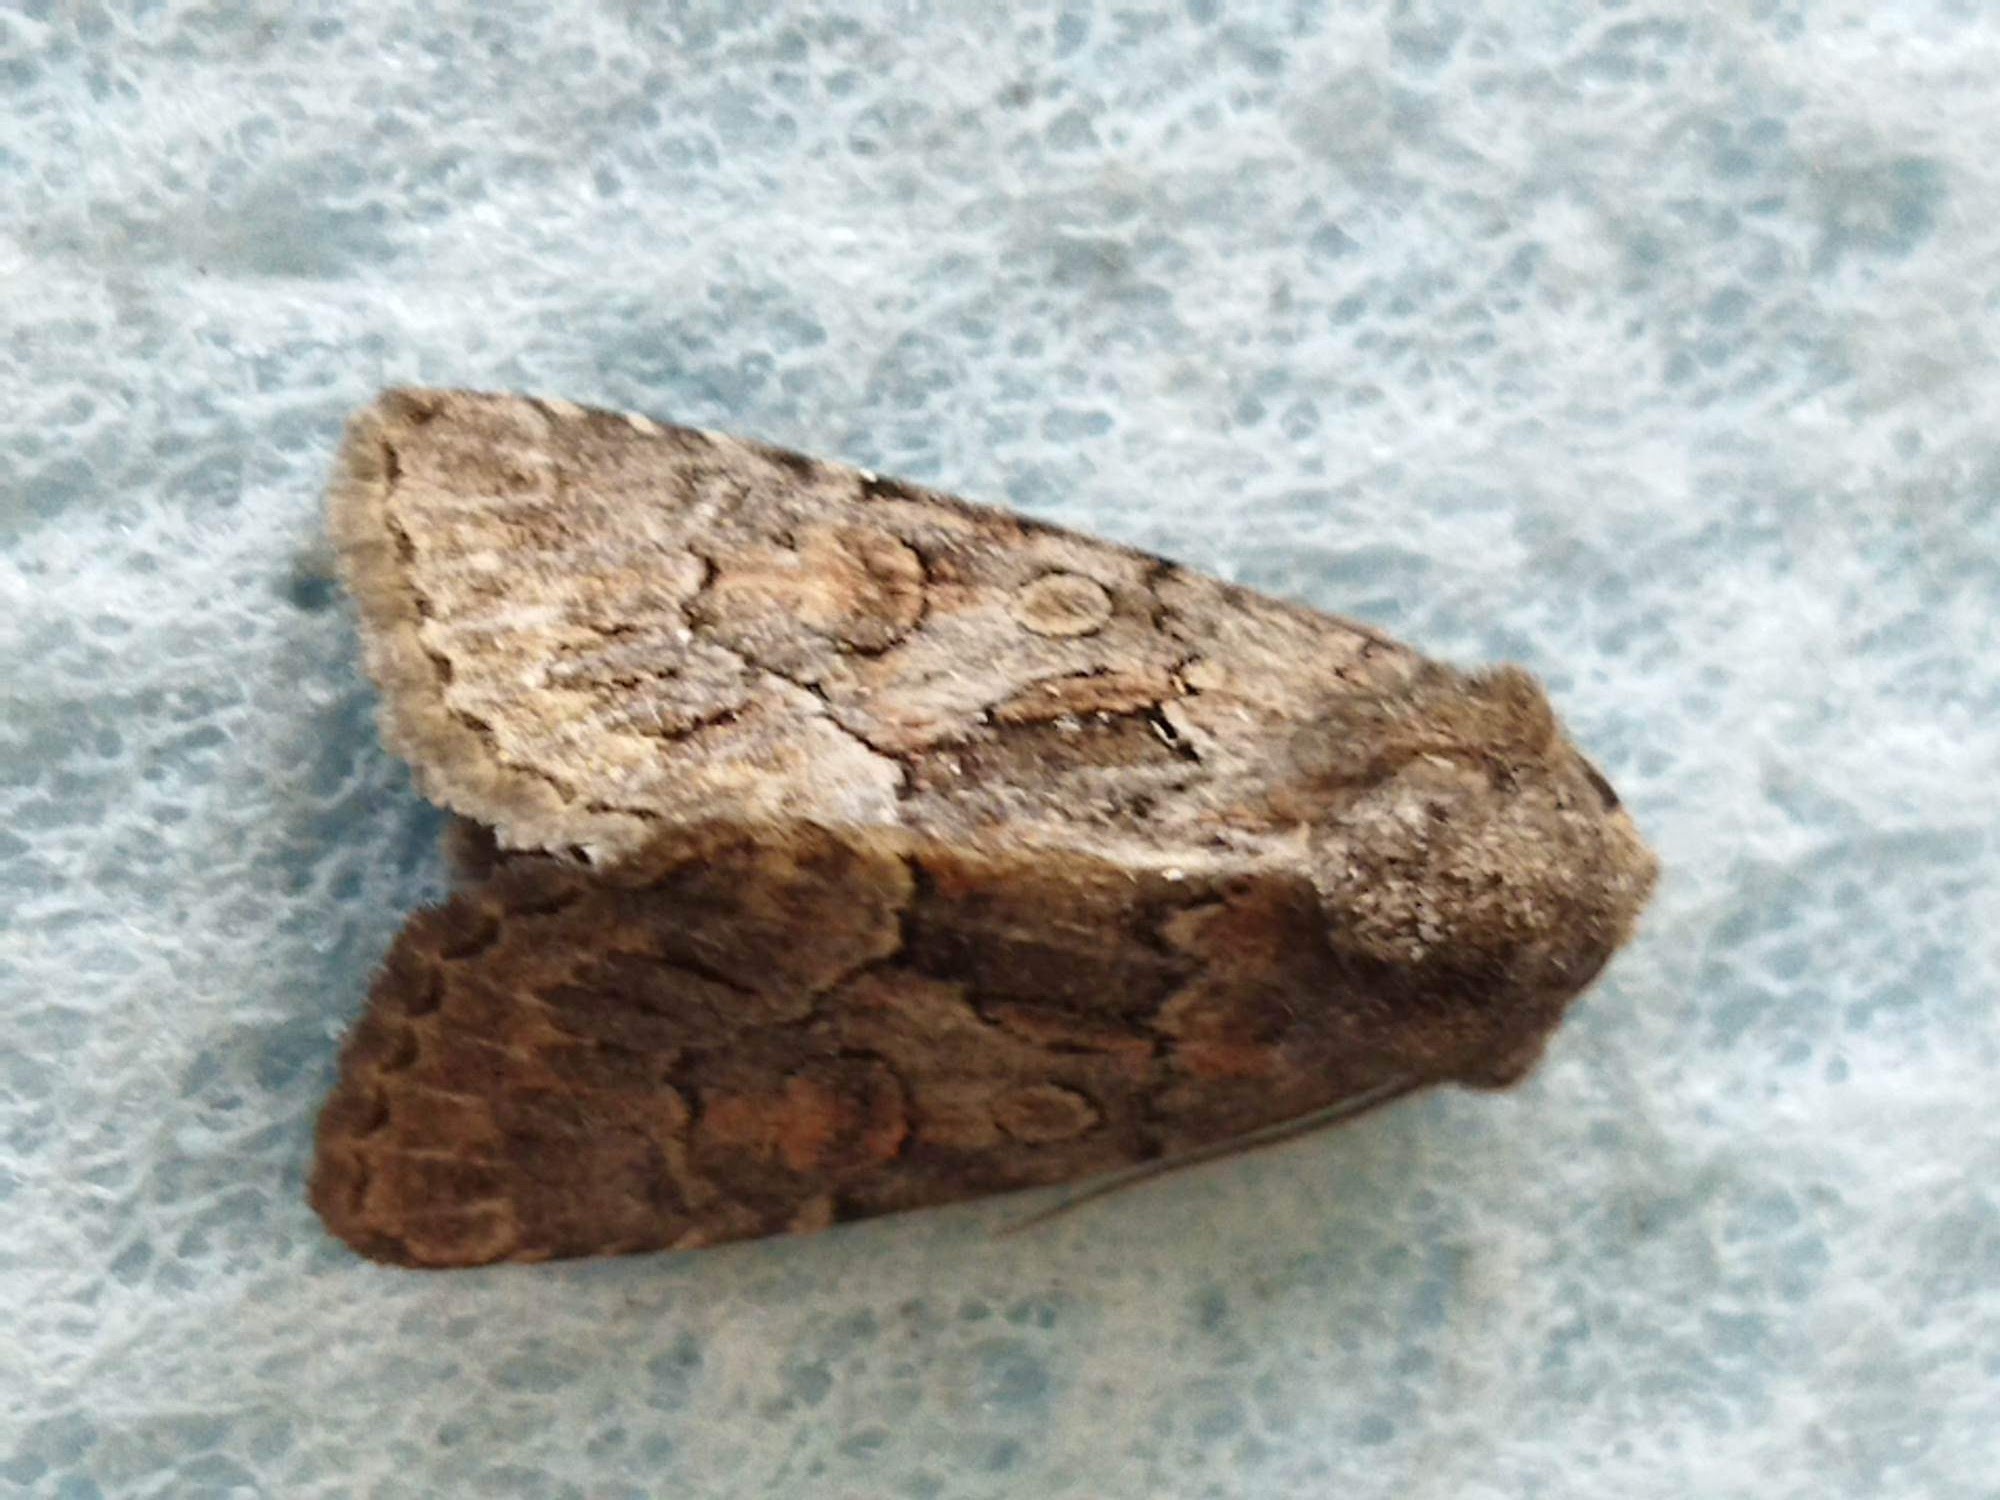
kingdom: Animalia
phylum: Arthropoda
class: Insecta
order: Lepidoptera
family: Noctuidae
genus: Thalpophila
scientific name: Thalpophila matura
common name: Straw underwing
